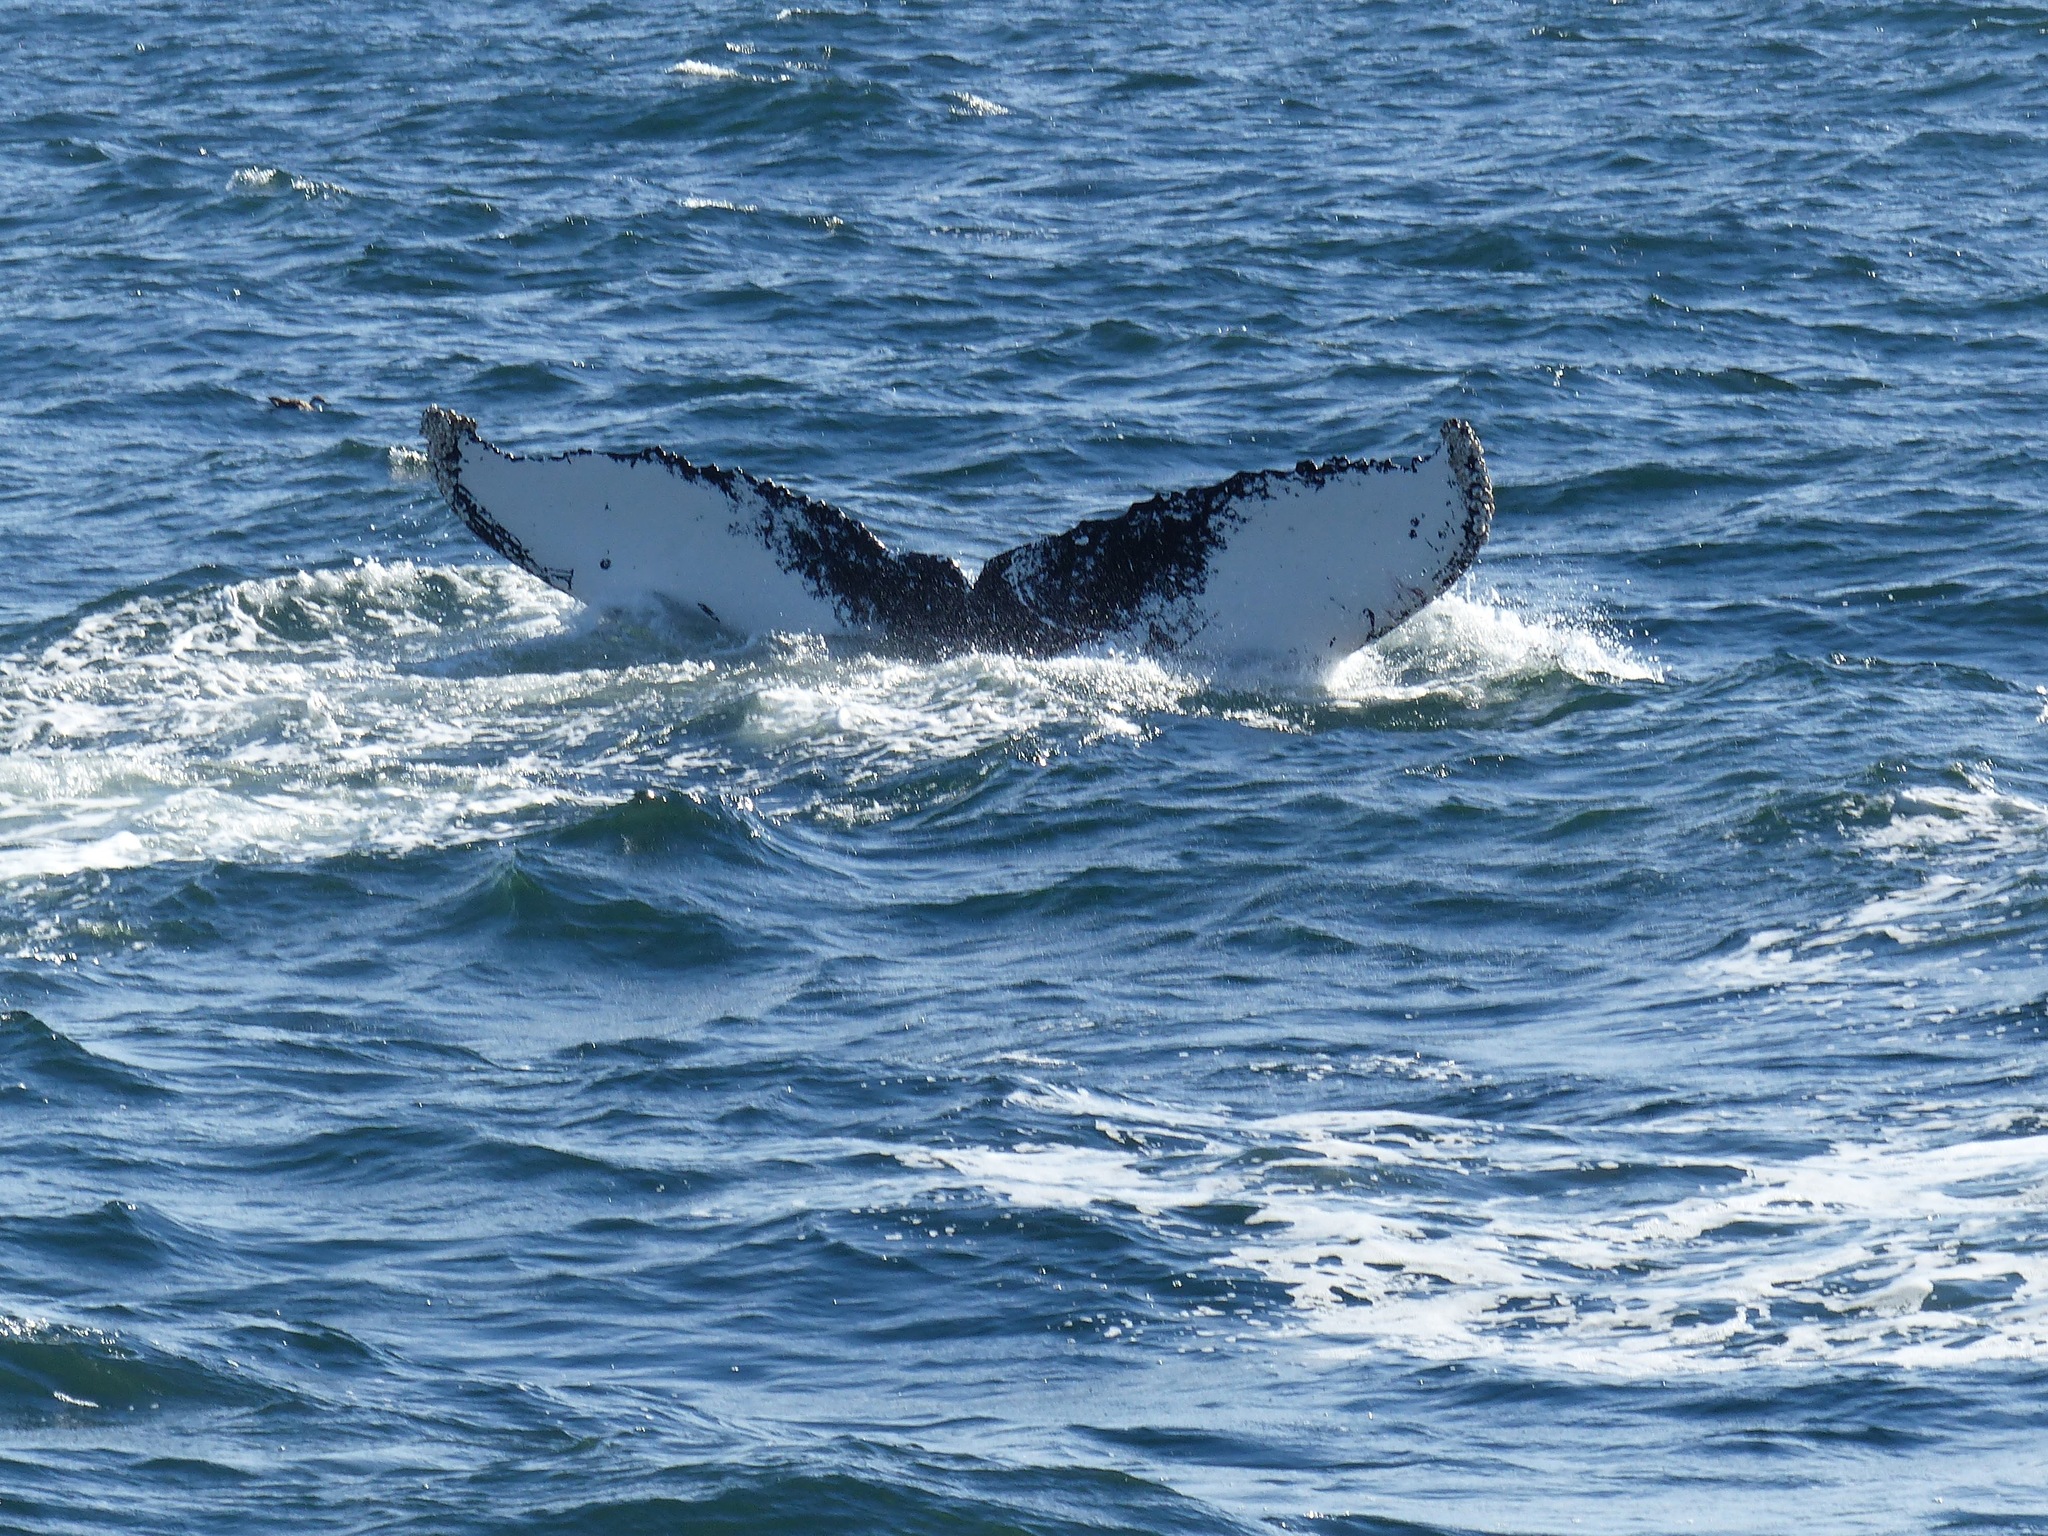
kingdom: Animalia
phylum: Chordata
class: Mammalia
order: Cetacea
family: Balaenopteridae
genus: Megaptera
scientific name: Megaptera novaeangliae
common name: Humpback whale
